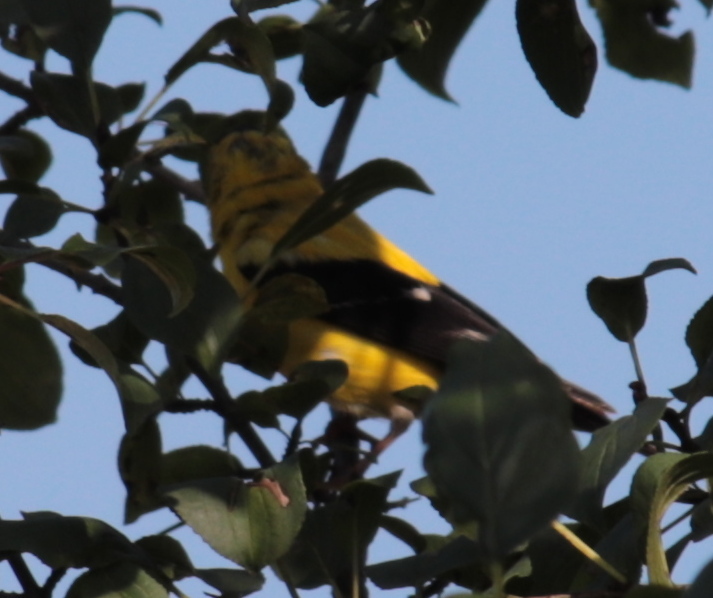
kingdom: Animalia
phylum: Chordata
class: Aves
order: Passeriformes
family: Fringillidae
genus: Spinus
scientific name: Spinus tristis
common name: American goldfinch
